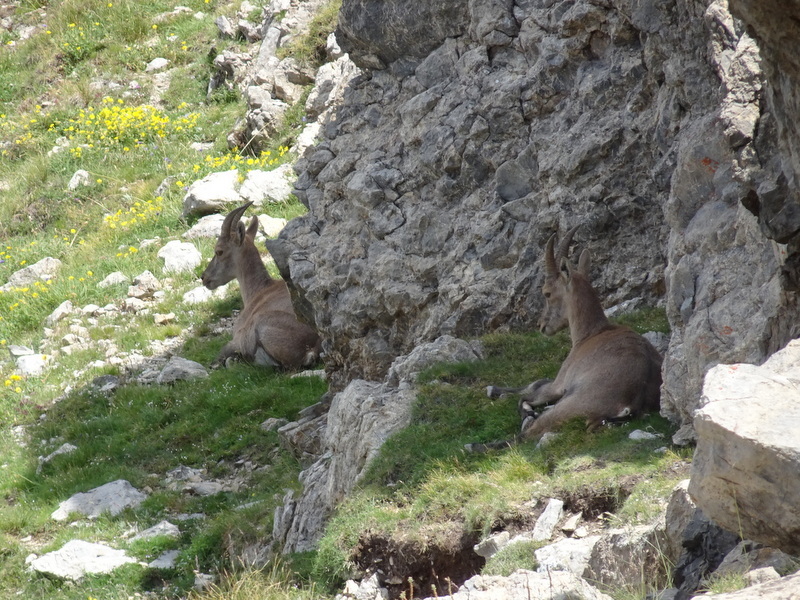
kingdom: Animalia
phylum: Chordata
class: Mammalia
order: Artiodactyla
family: Bovidae
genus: Capra
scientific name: Capra ibex
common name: Alpine ibex
